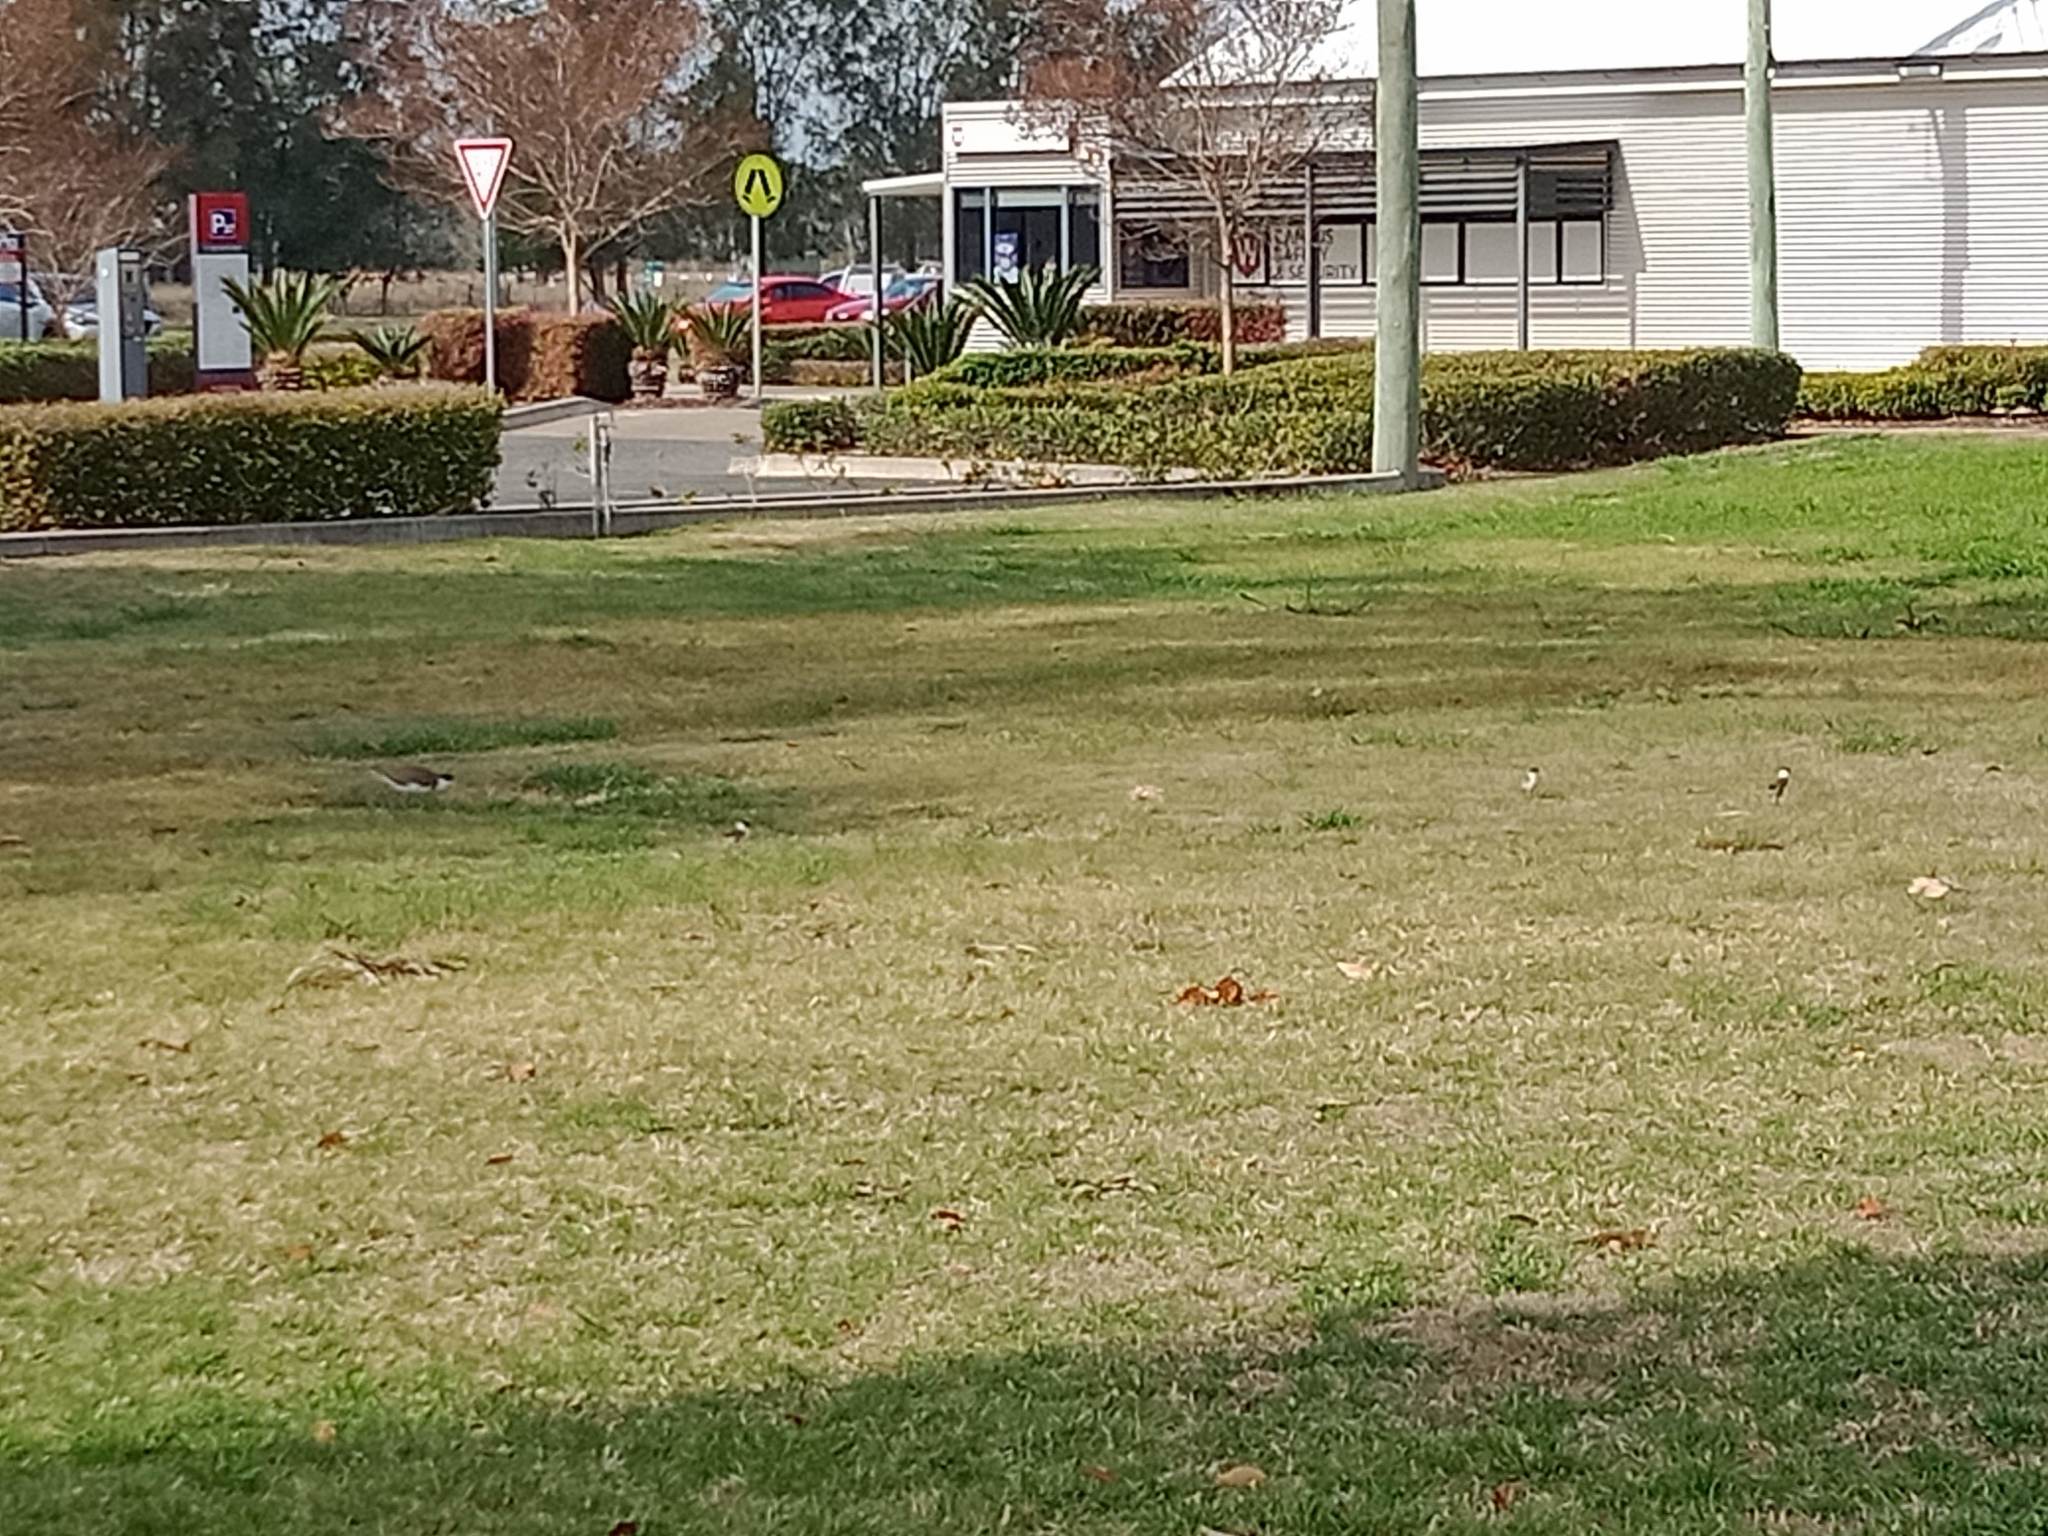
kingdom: Animalia
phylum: Chordata
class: Aves
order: Charadriiformes
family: Charadriidae
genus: Vanellus
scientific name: Vanellus miles
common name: Masked lapwing
